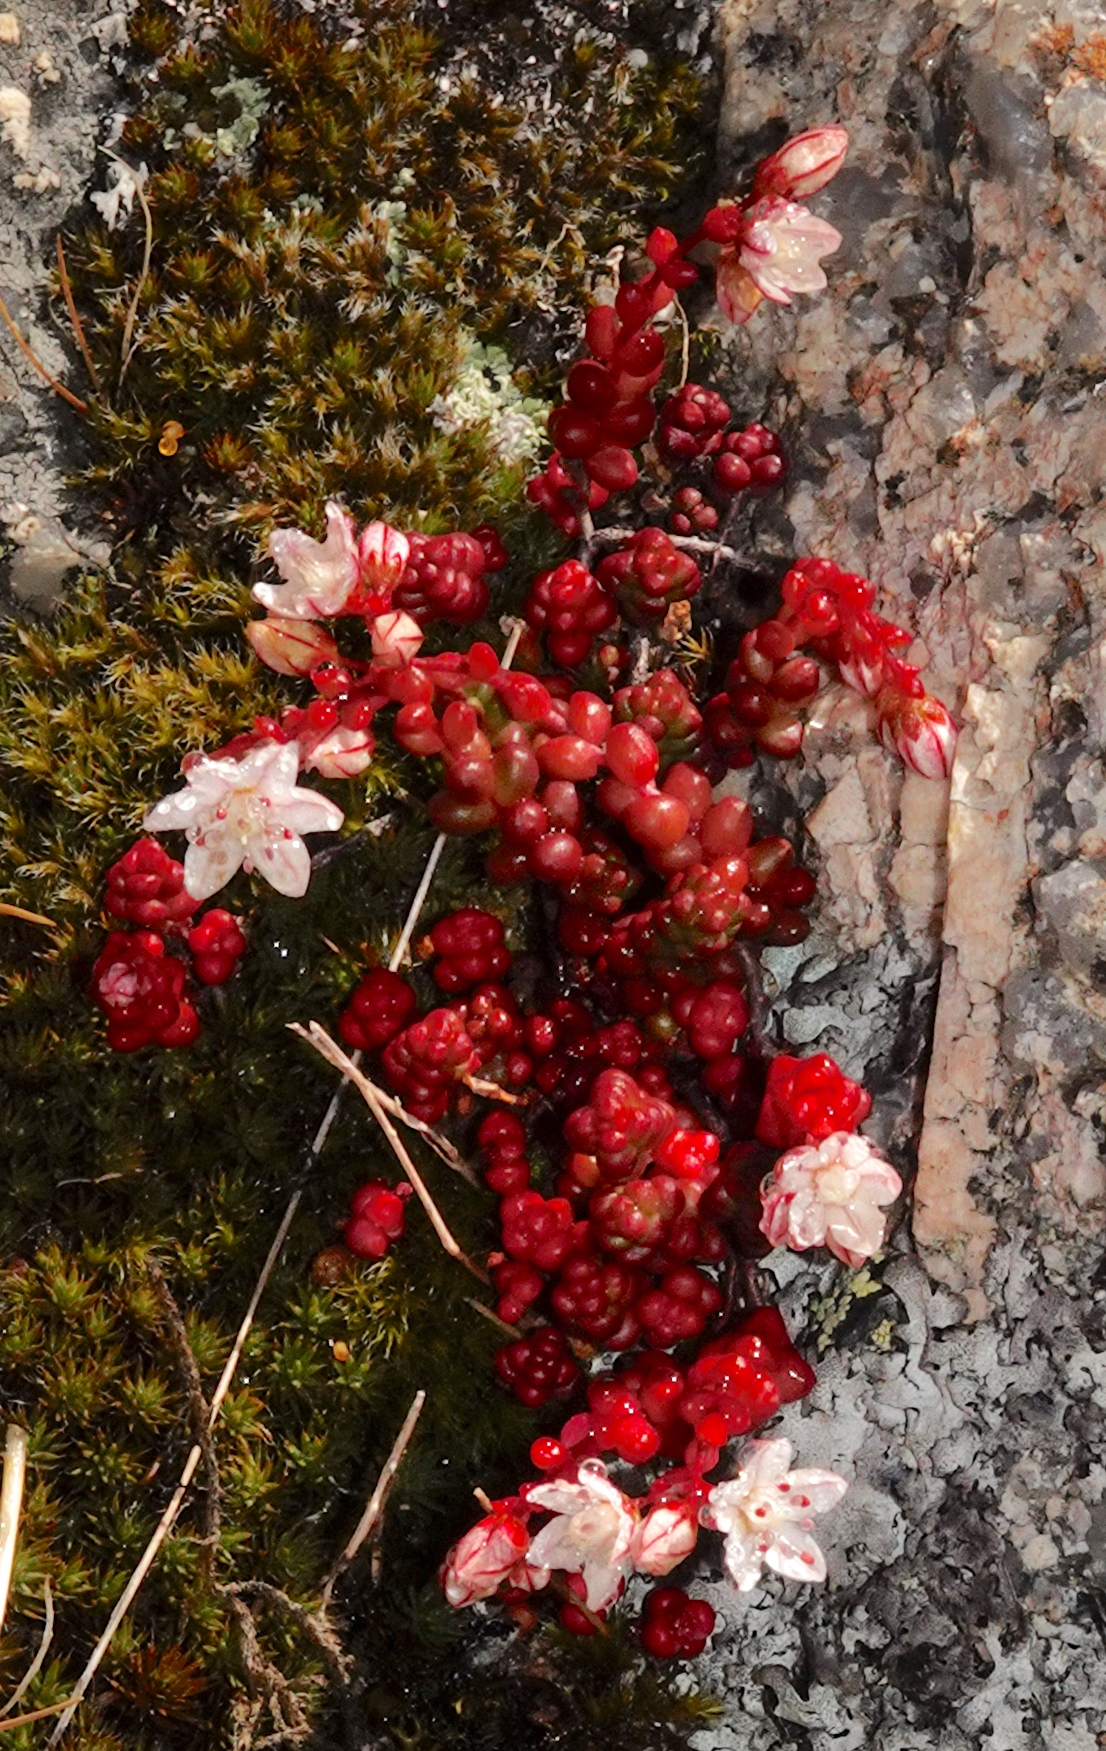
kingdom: Plantae
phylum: Tracheophyta
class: Magnoliopsida
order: Saxifragales
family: Crassulaceae
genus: Sedum
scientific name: Sedum brevifolium
